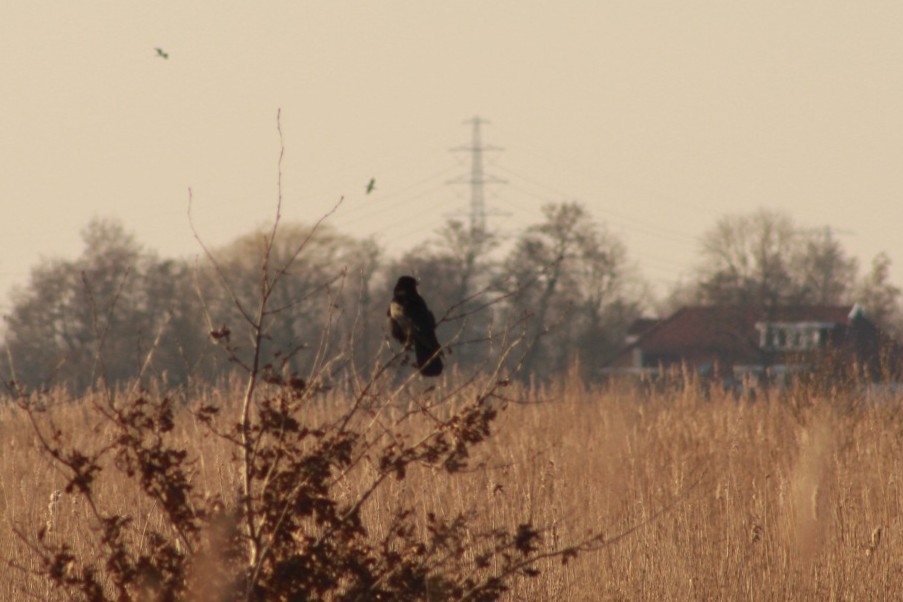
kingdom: Animalia
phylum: Chordata
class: Aves
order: Passeriformes
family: Corvidae
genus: Corvus
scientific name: Corvus corone
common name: Carrion crow
